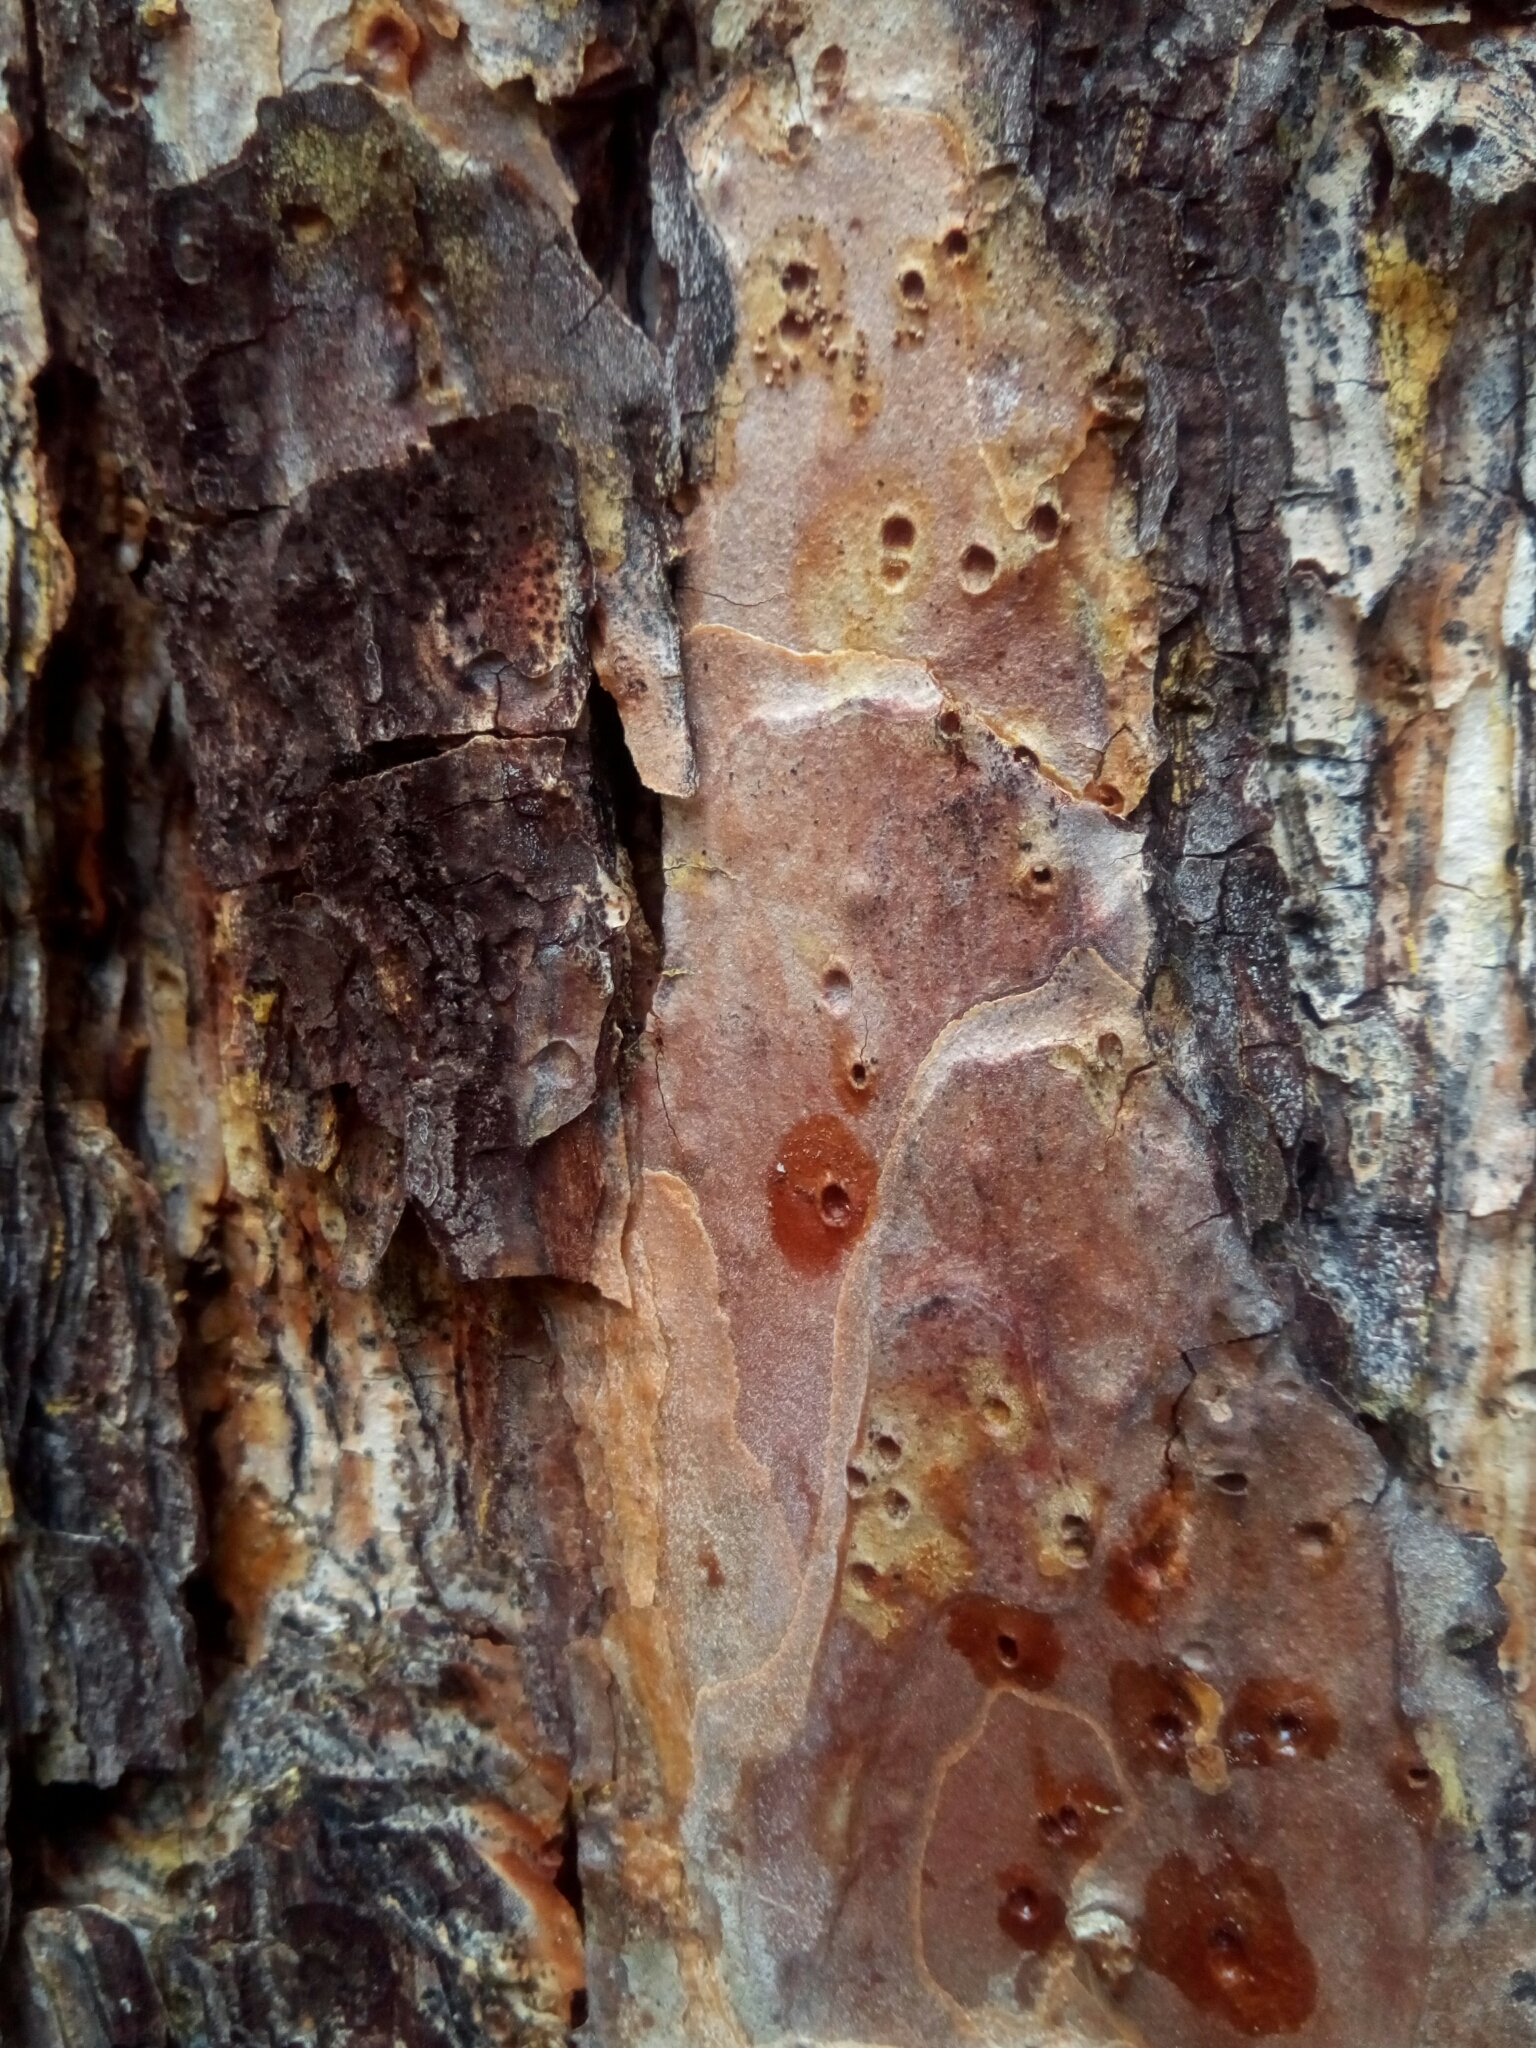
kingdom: Plantae
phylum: Tracheophyta
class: Pinopsida
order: Pinales
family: Pinaceae
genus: Pinus
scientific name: Pinus echinata
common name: Shortleaf pine
